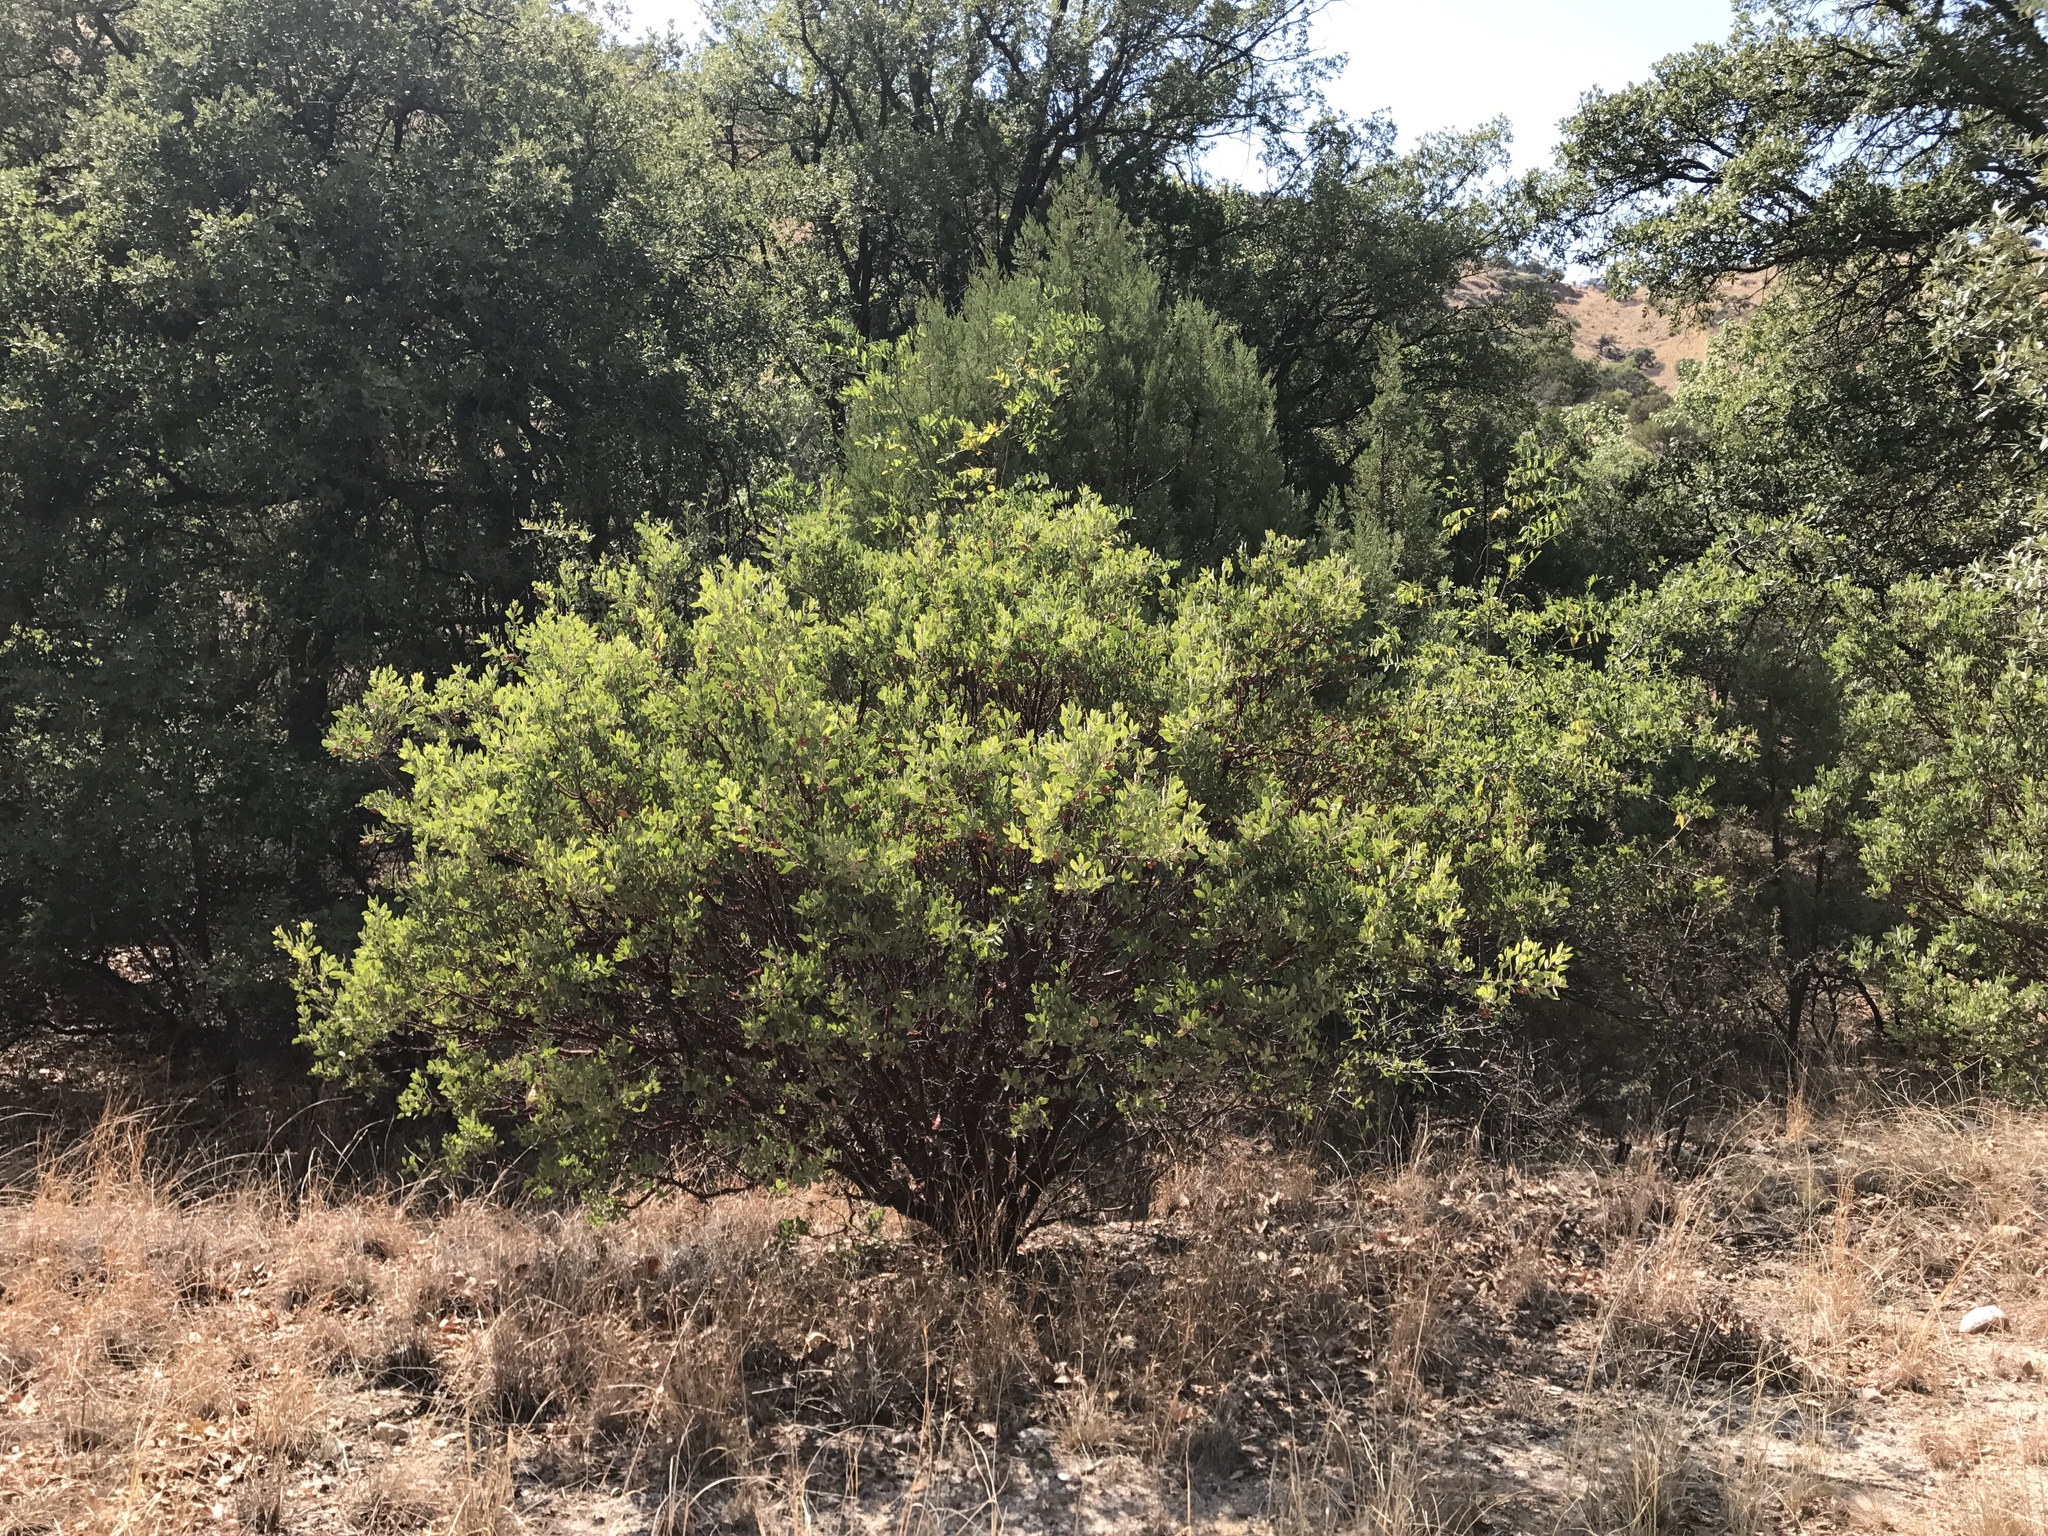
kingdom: Plantae
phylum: Tracheophyta
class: Magnoliopsida
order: Ericales
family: Ericaceae
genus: Arctostaphylos
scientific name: Arctostaphylos pungens
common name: Mexican manzanita
